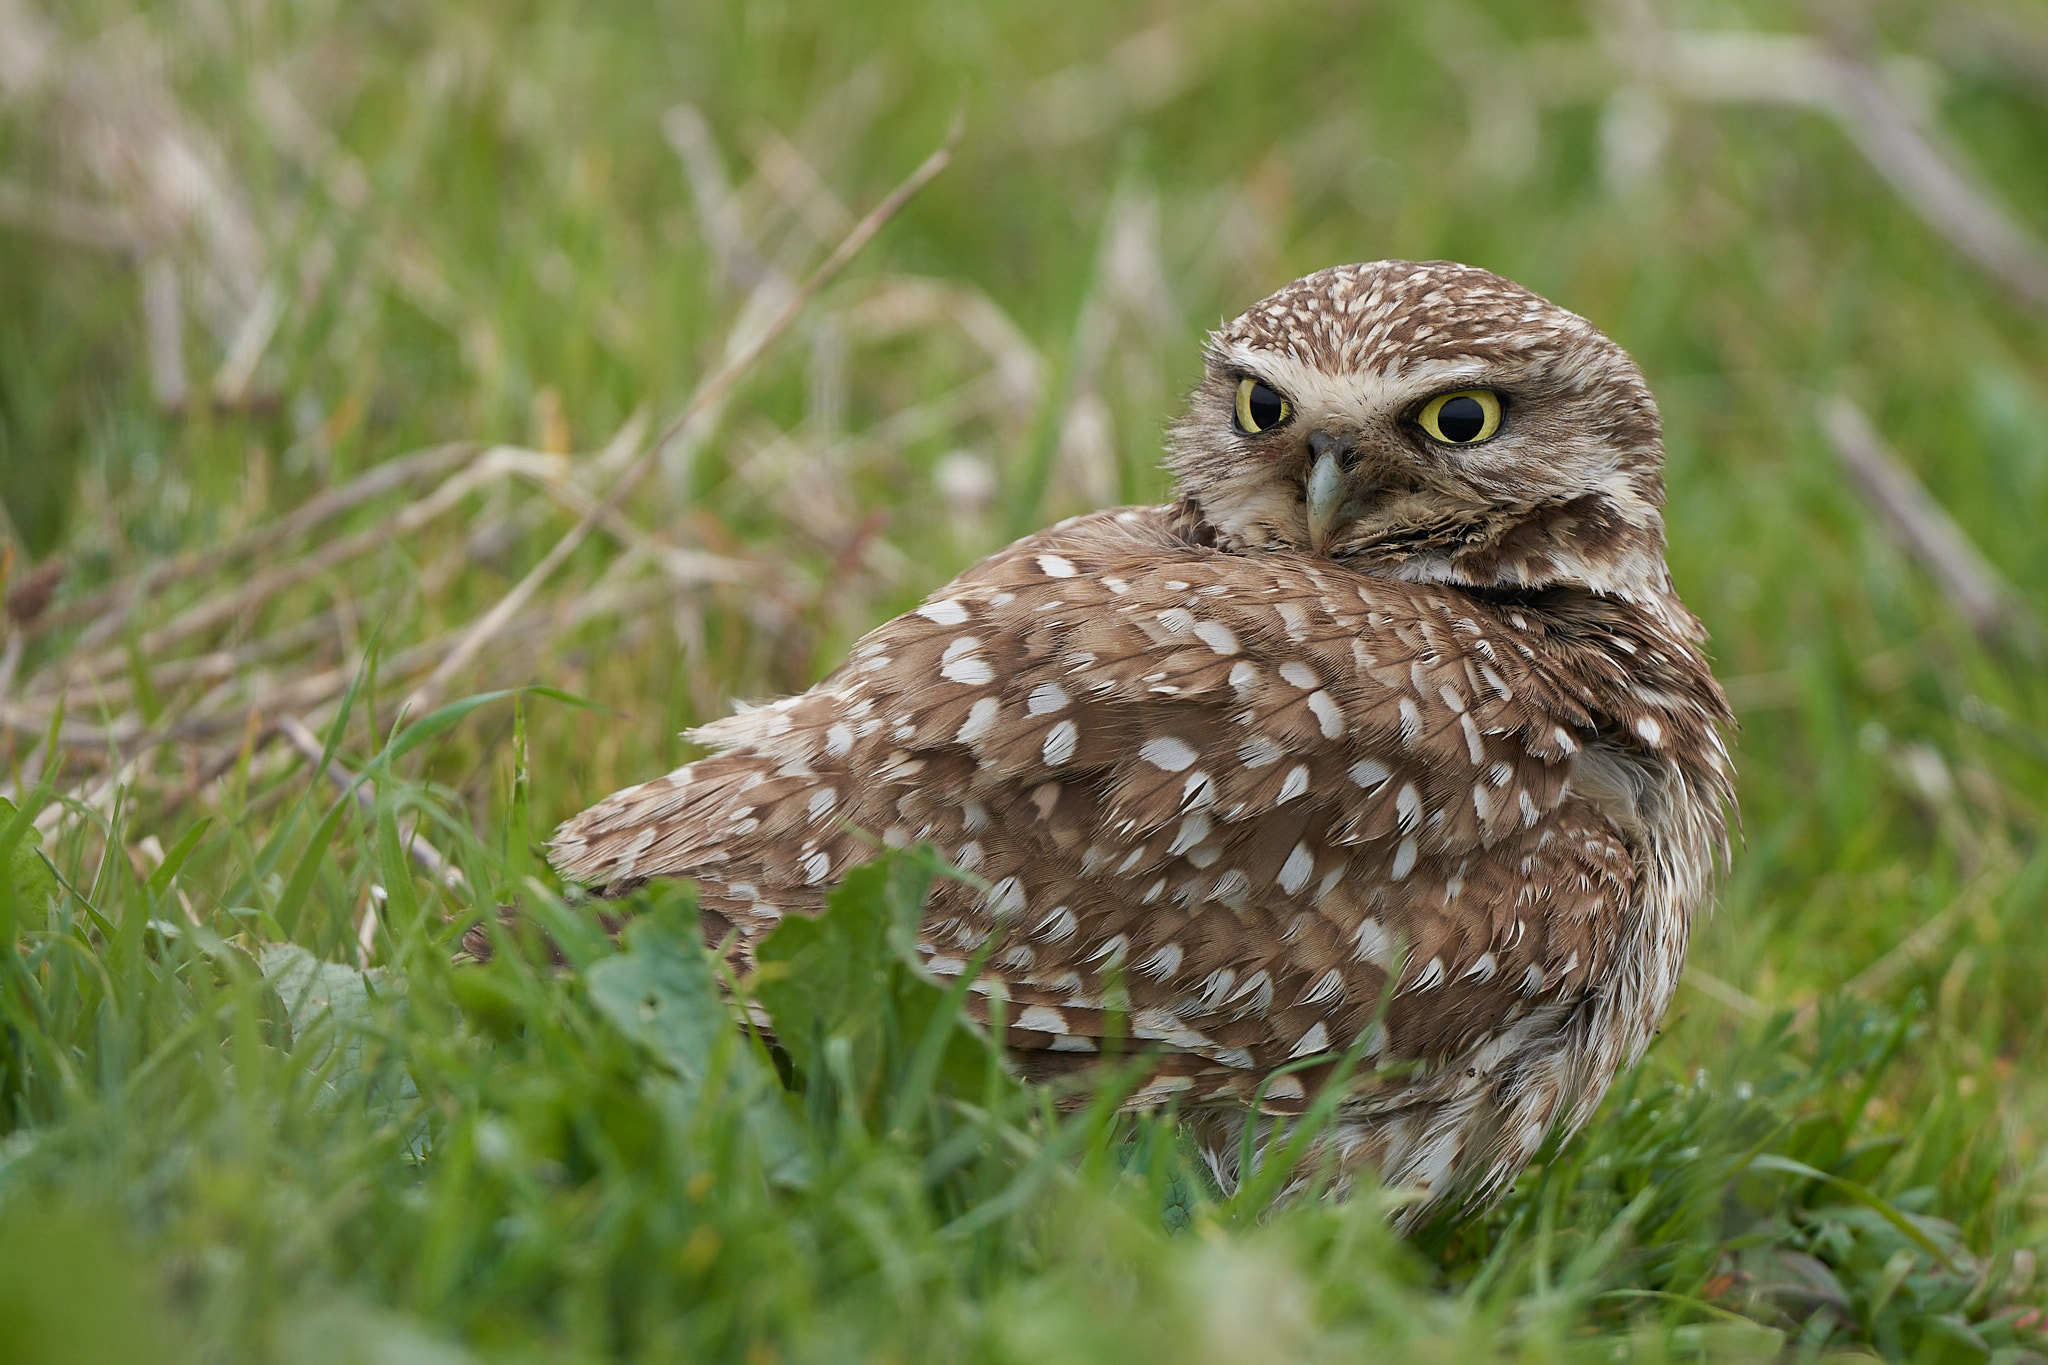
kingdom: Animalia
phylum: Chordata
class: Aves
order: Strigiformes
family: Strigidae
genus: Athene
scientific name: Athene cunicularia
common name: Burrowing owl
